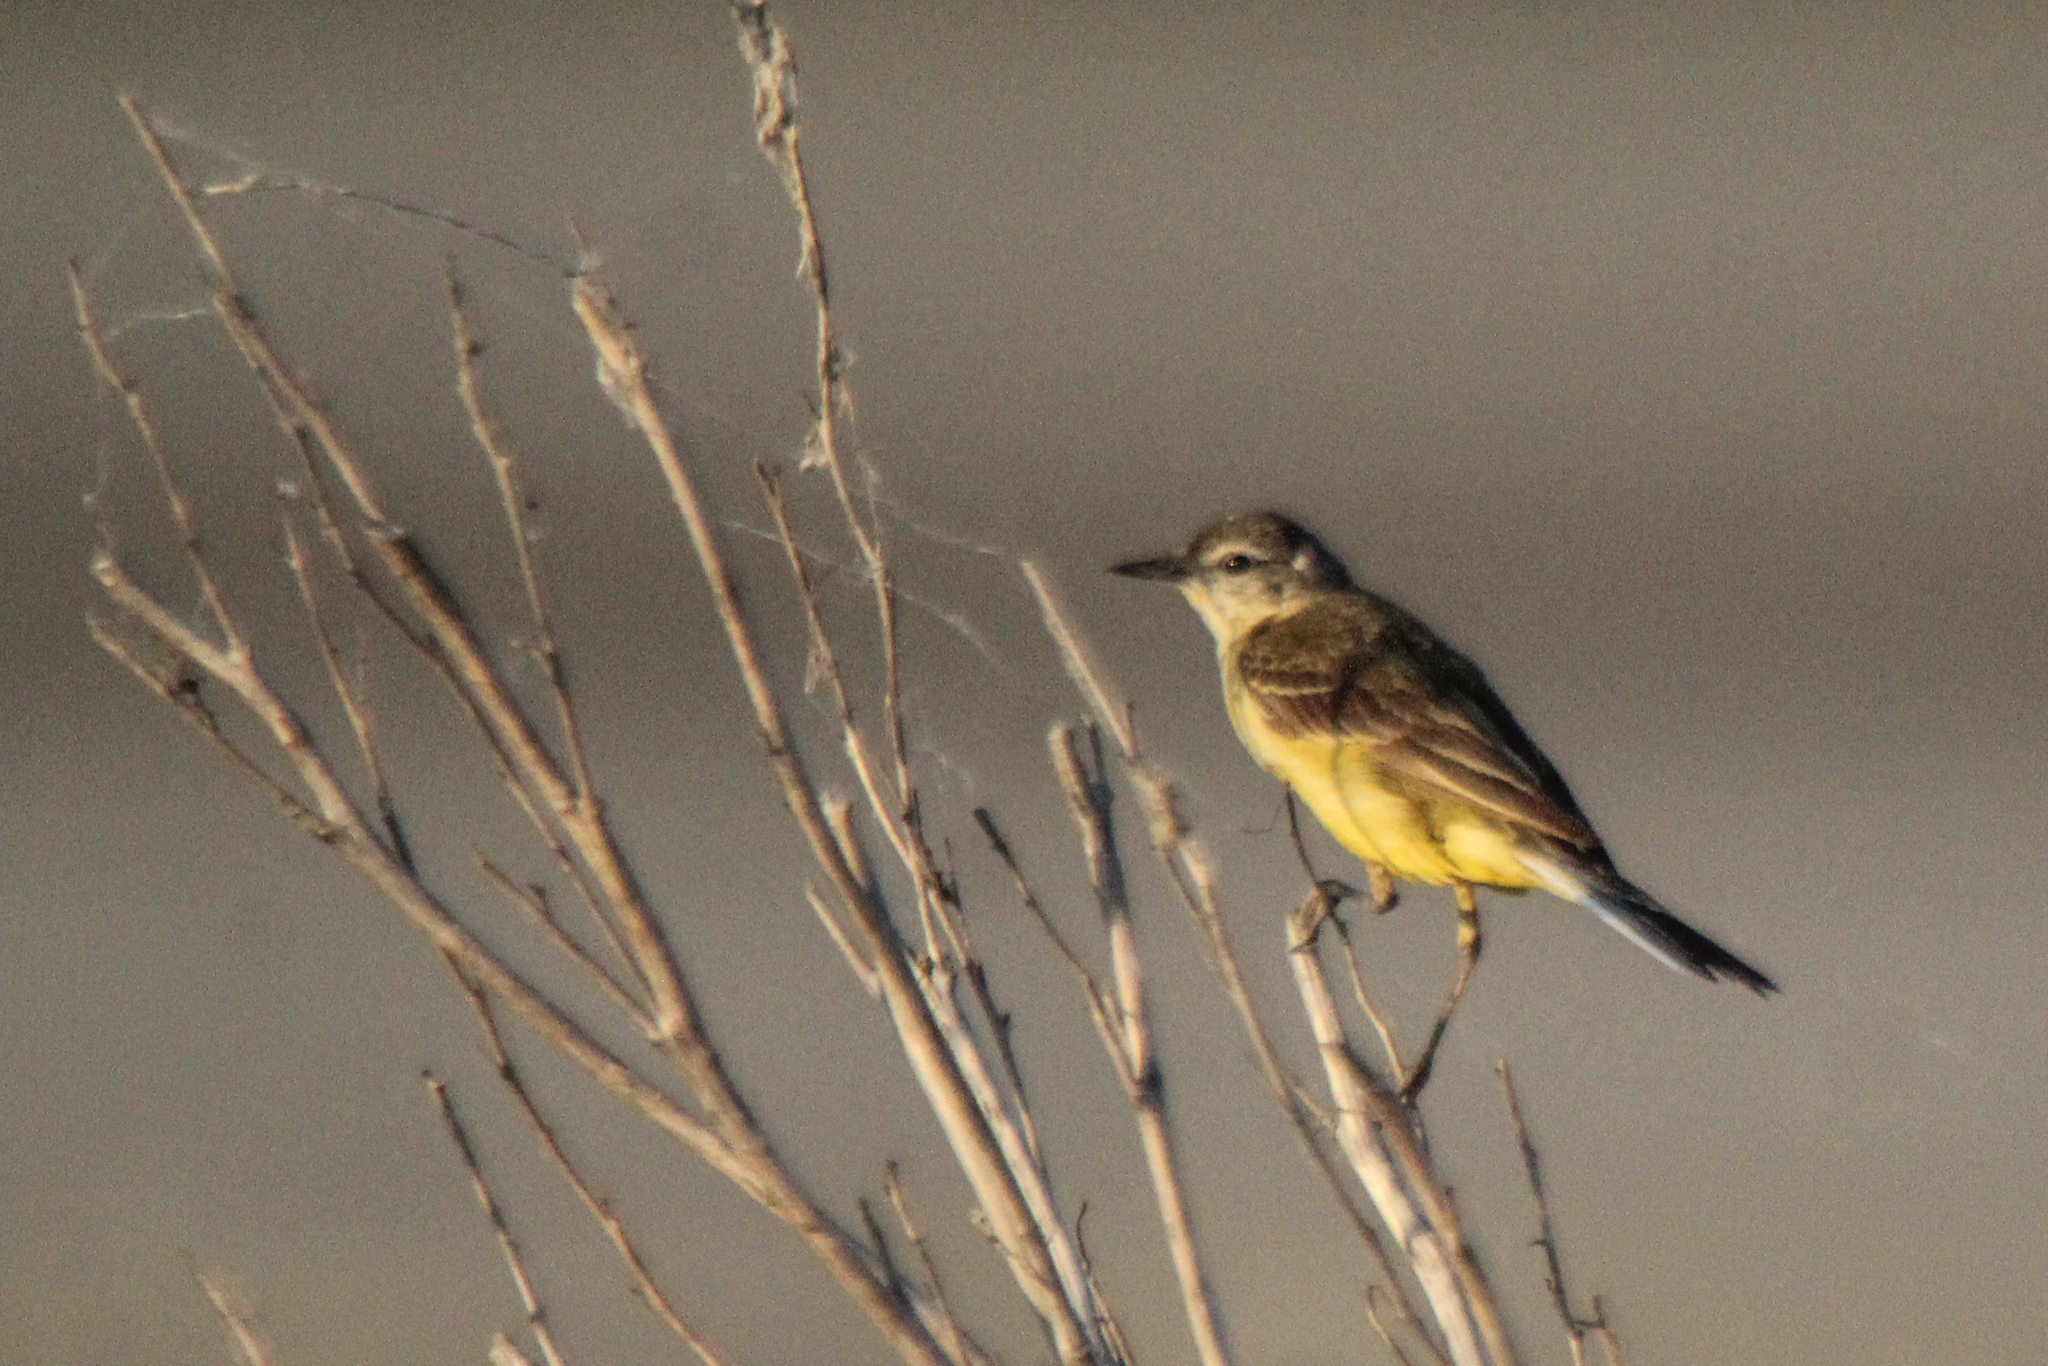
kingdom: Animalia
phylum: Chordata
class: Aves
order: Passeriformes
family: Motacillidae
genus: Motacilla
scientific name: Motacilla flava
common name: Western yellow wagtail
